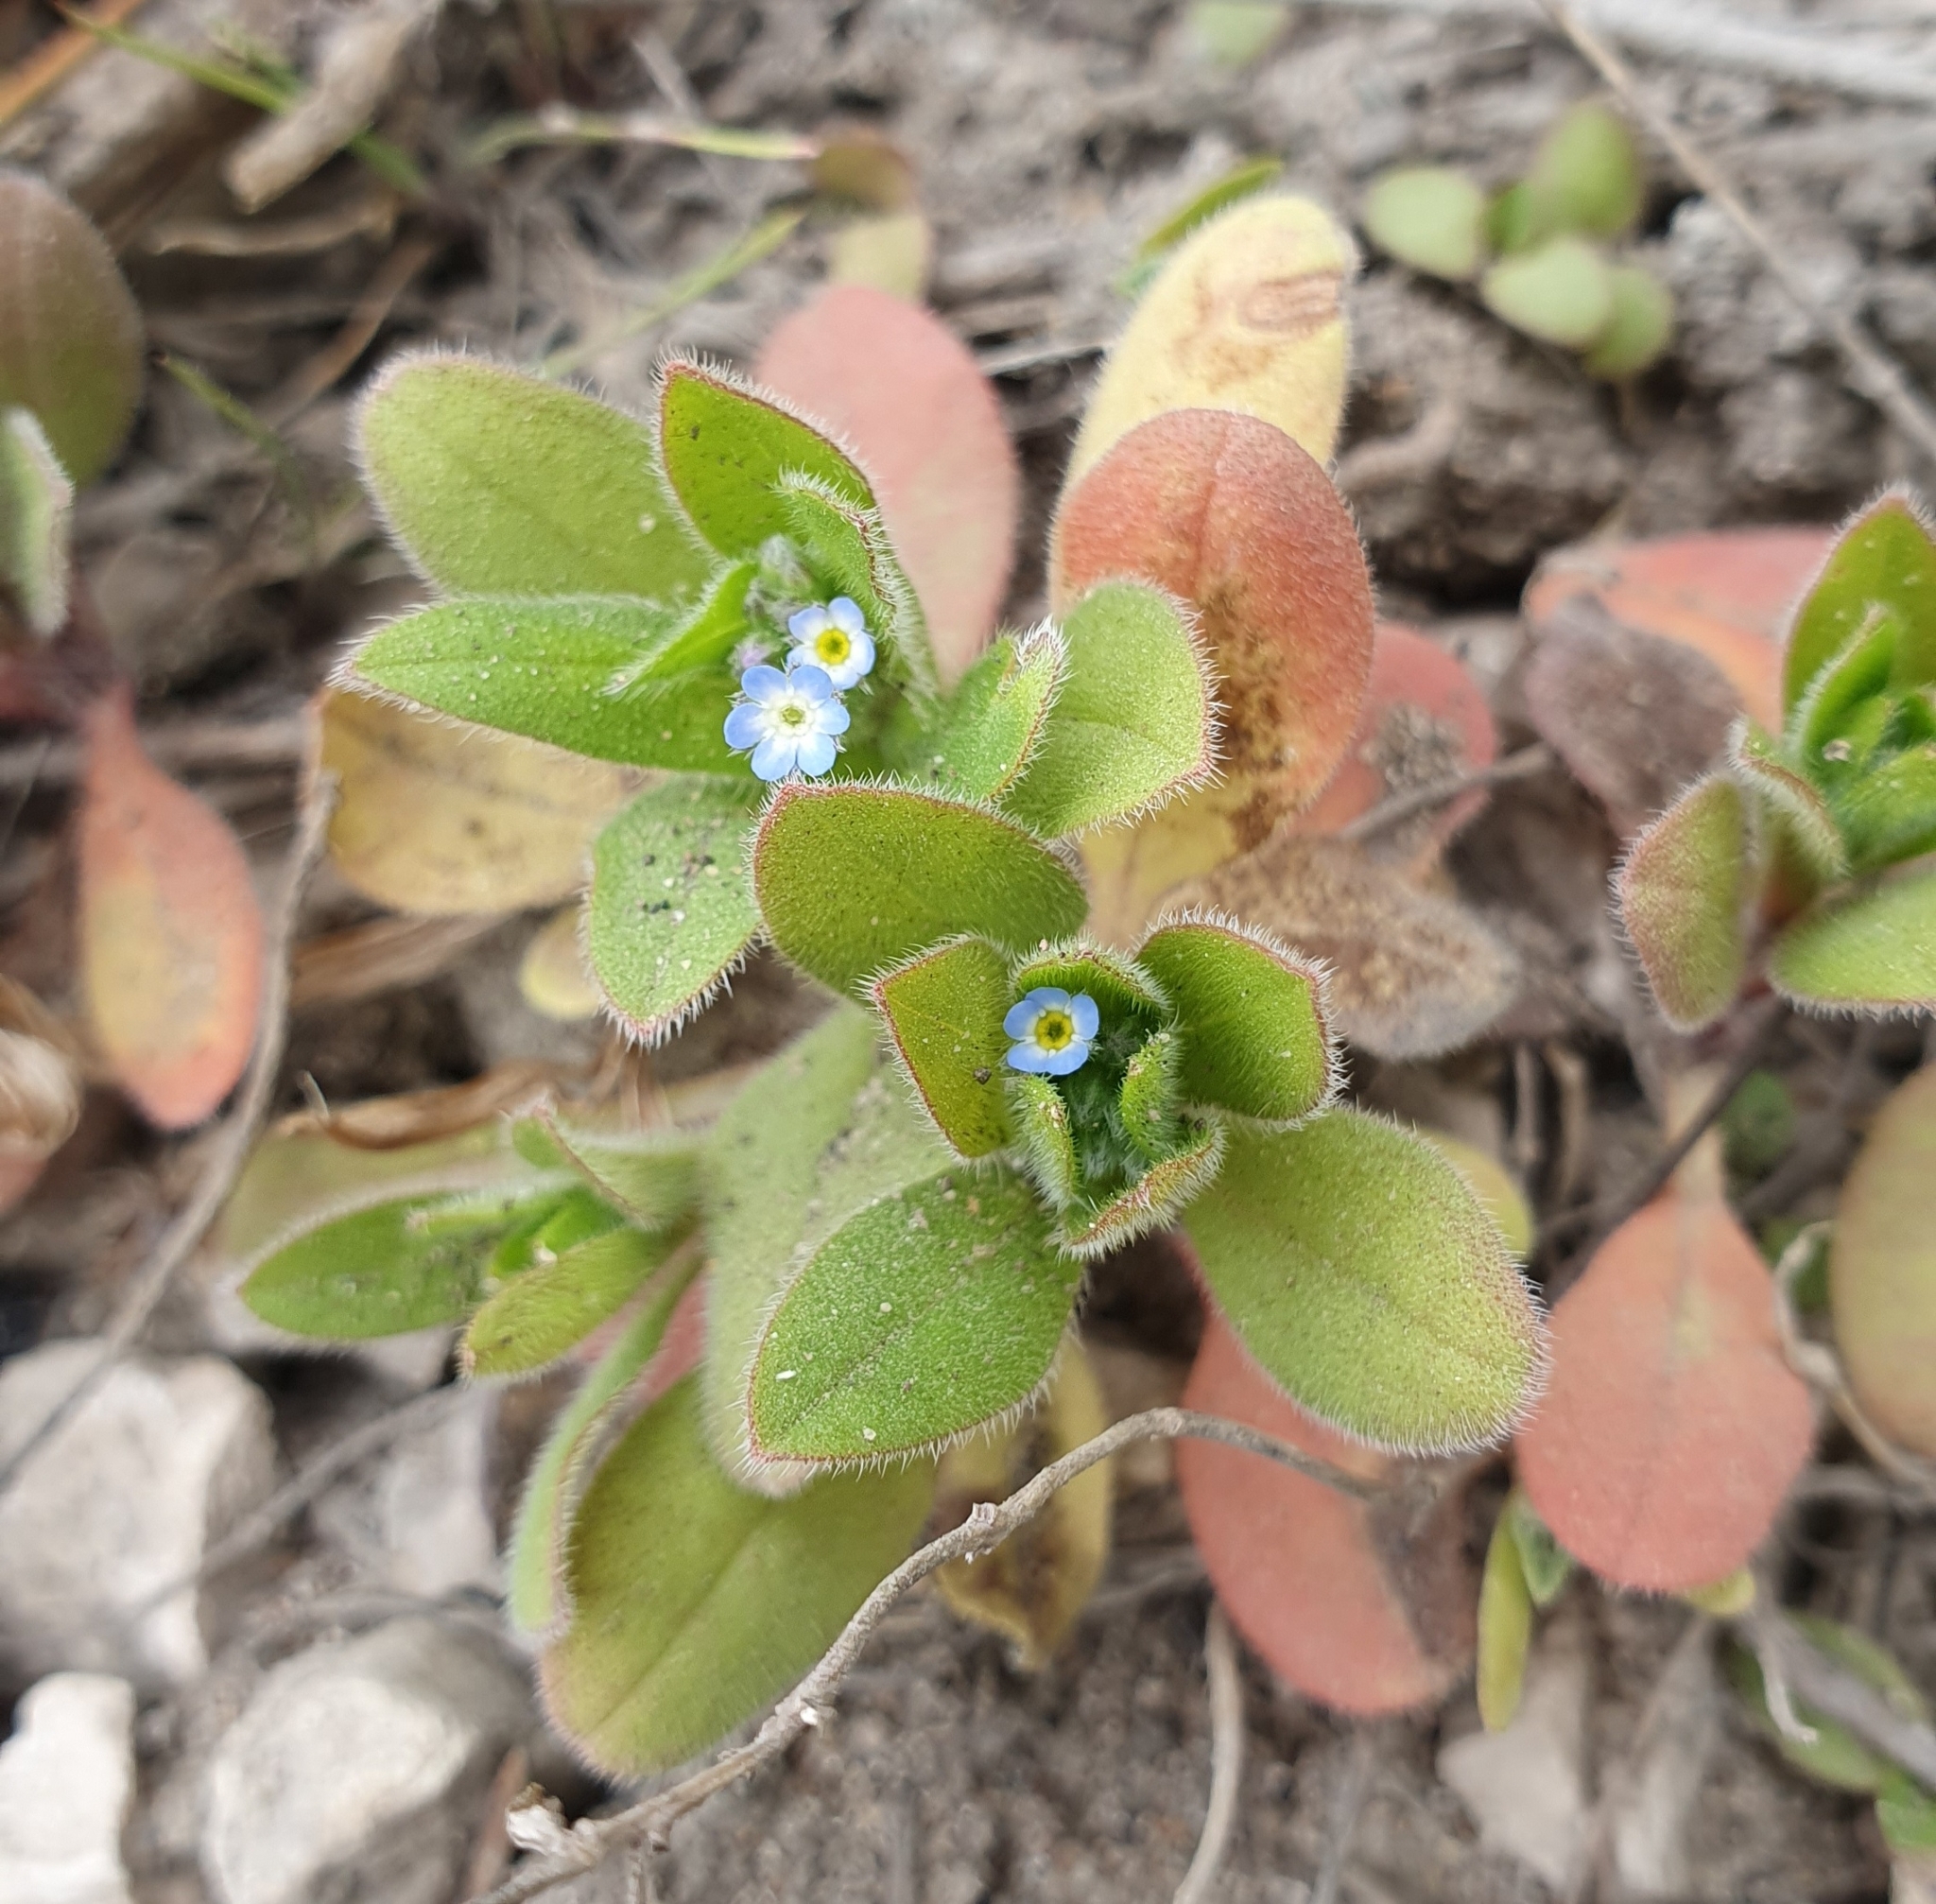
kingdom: Plantae
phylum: Tracheophyta
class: Magnoliopsida
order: Boraginales
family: Boraginaceae
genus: Myosotis
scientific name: Myosotis sparsiflora
